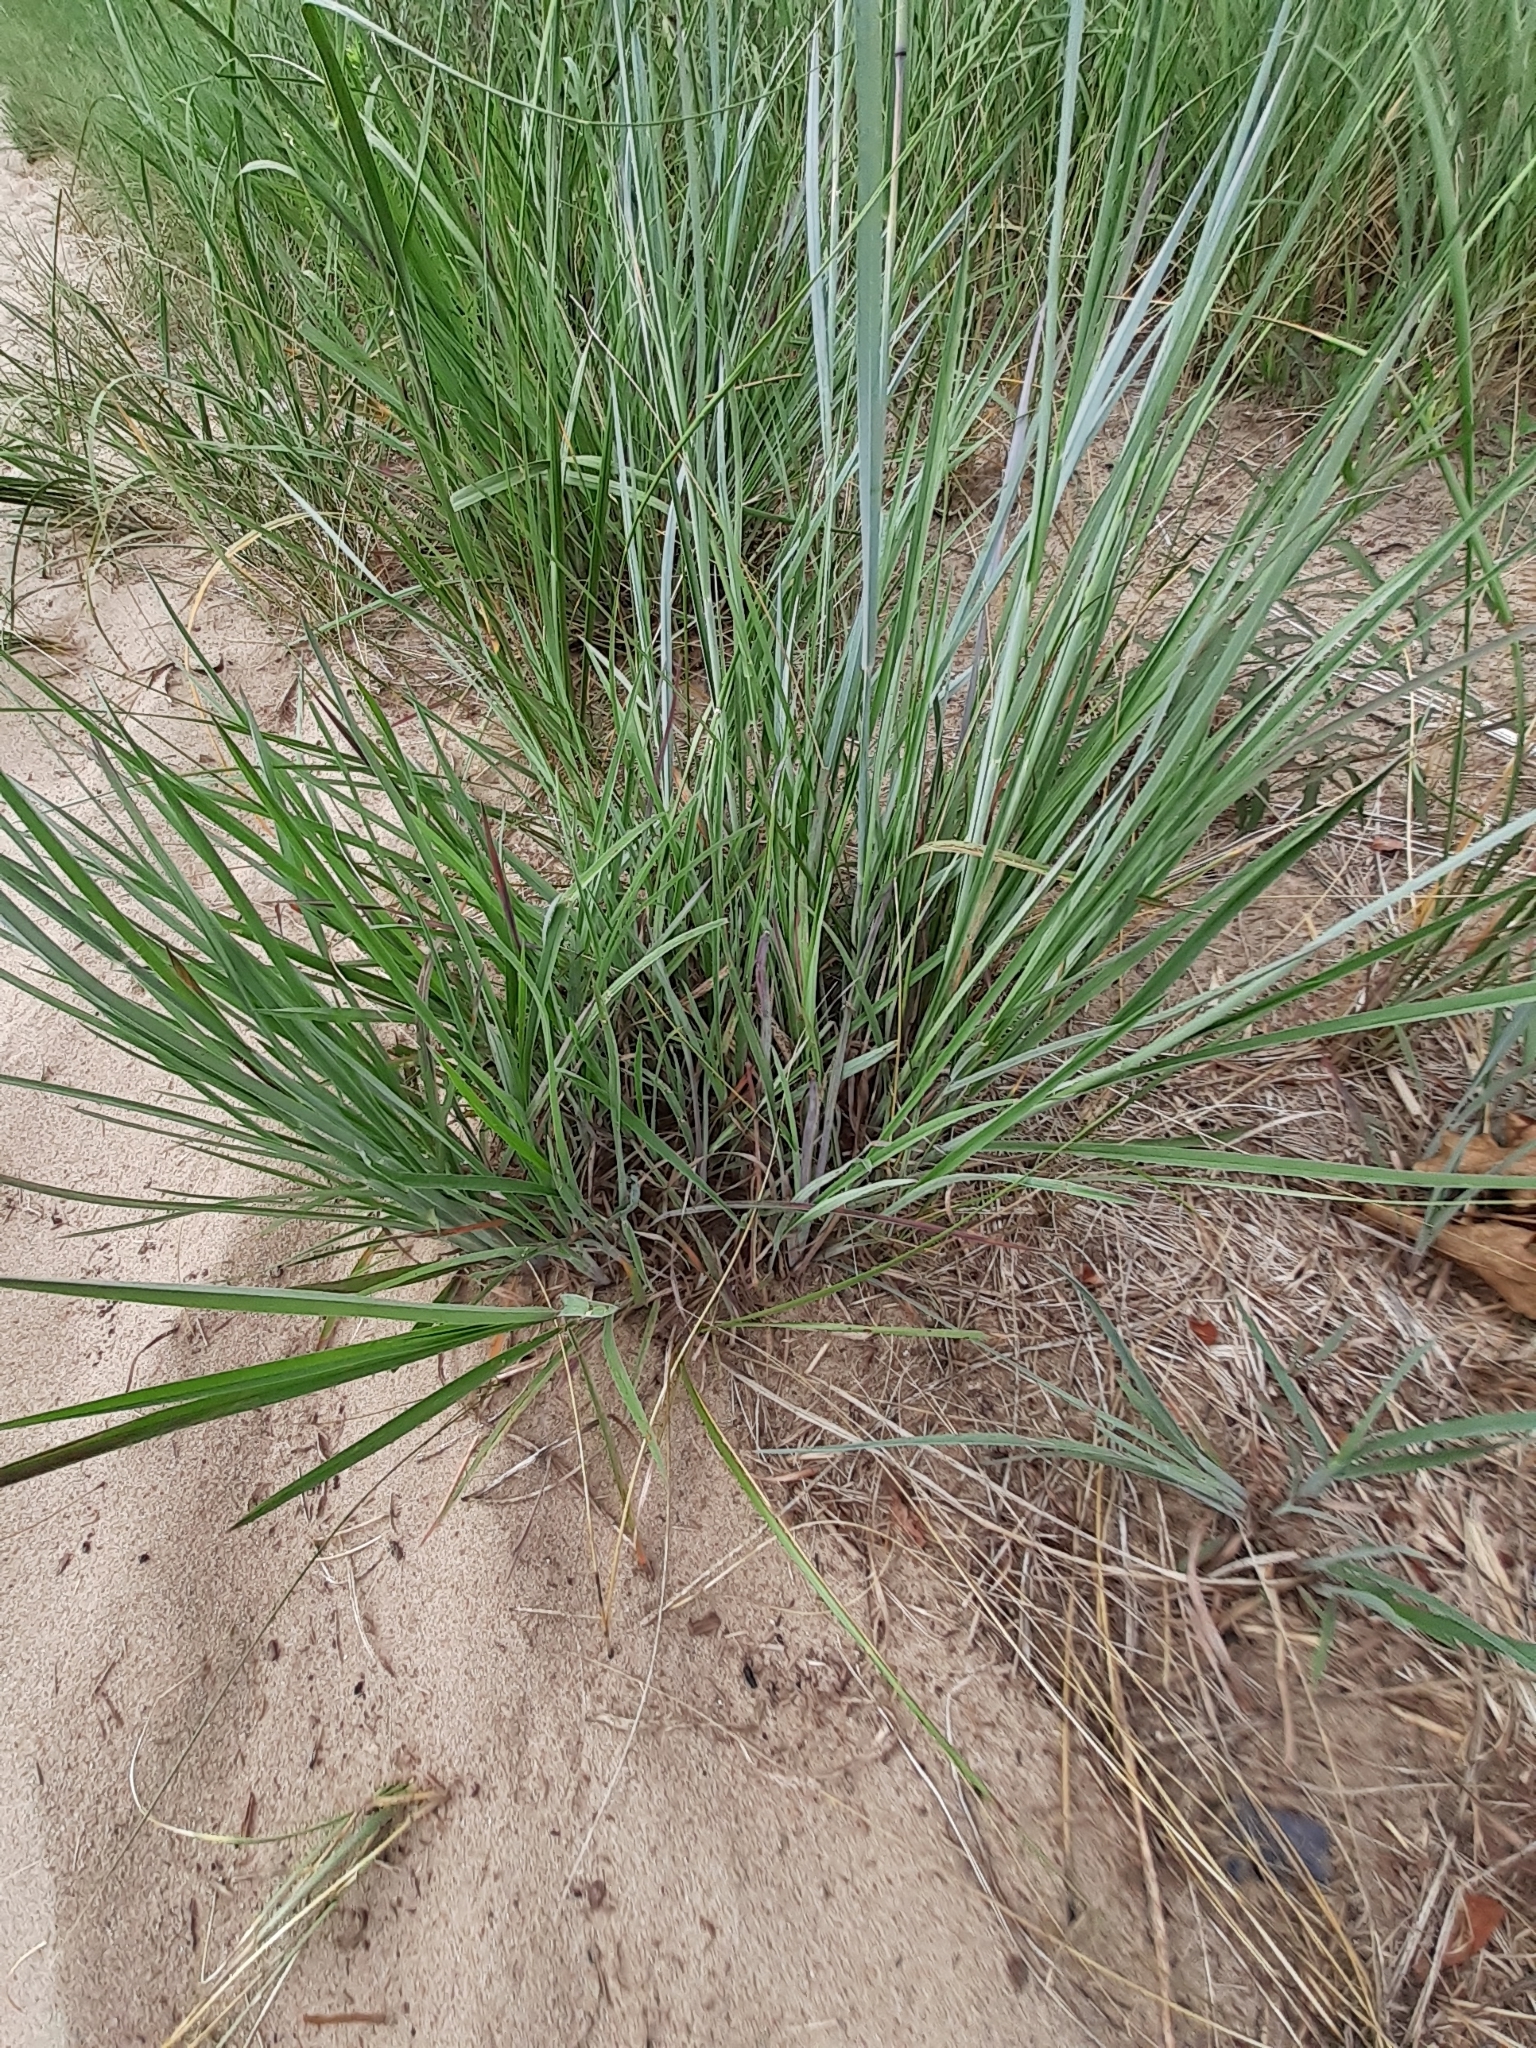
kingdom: Plantae
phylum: Tracheophyta
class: Liliopsida
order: Poales
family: Poaceae
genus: Andropogon
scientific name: Andropogon gerardi
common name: Big bluestem
